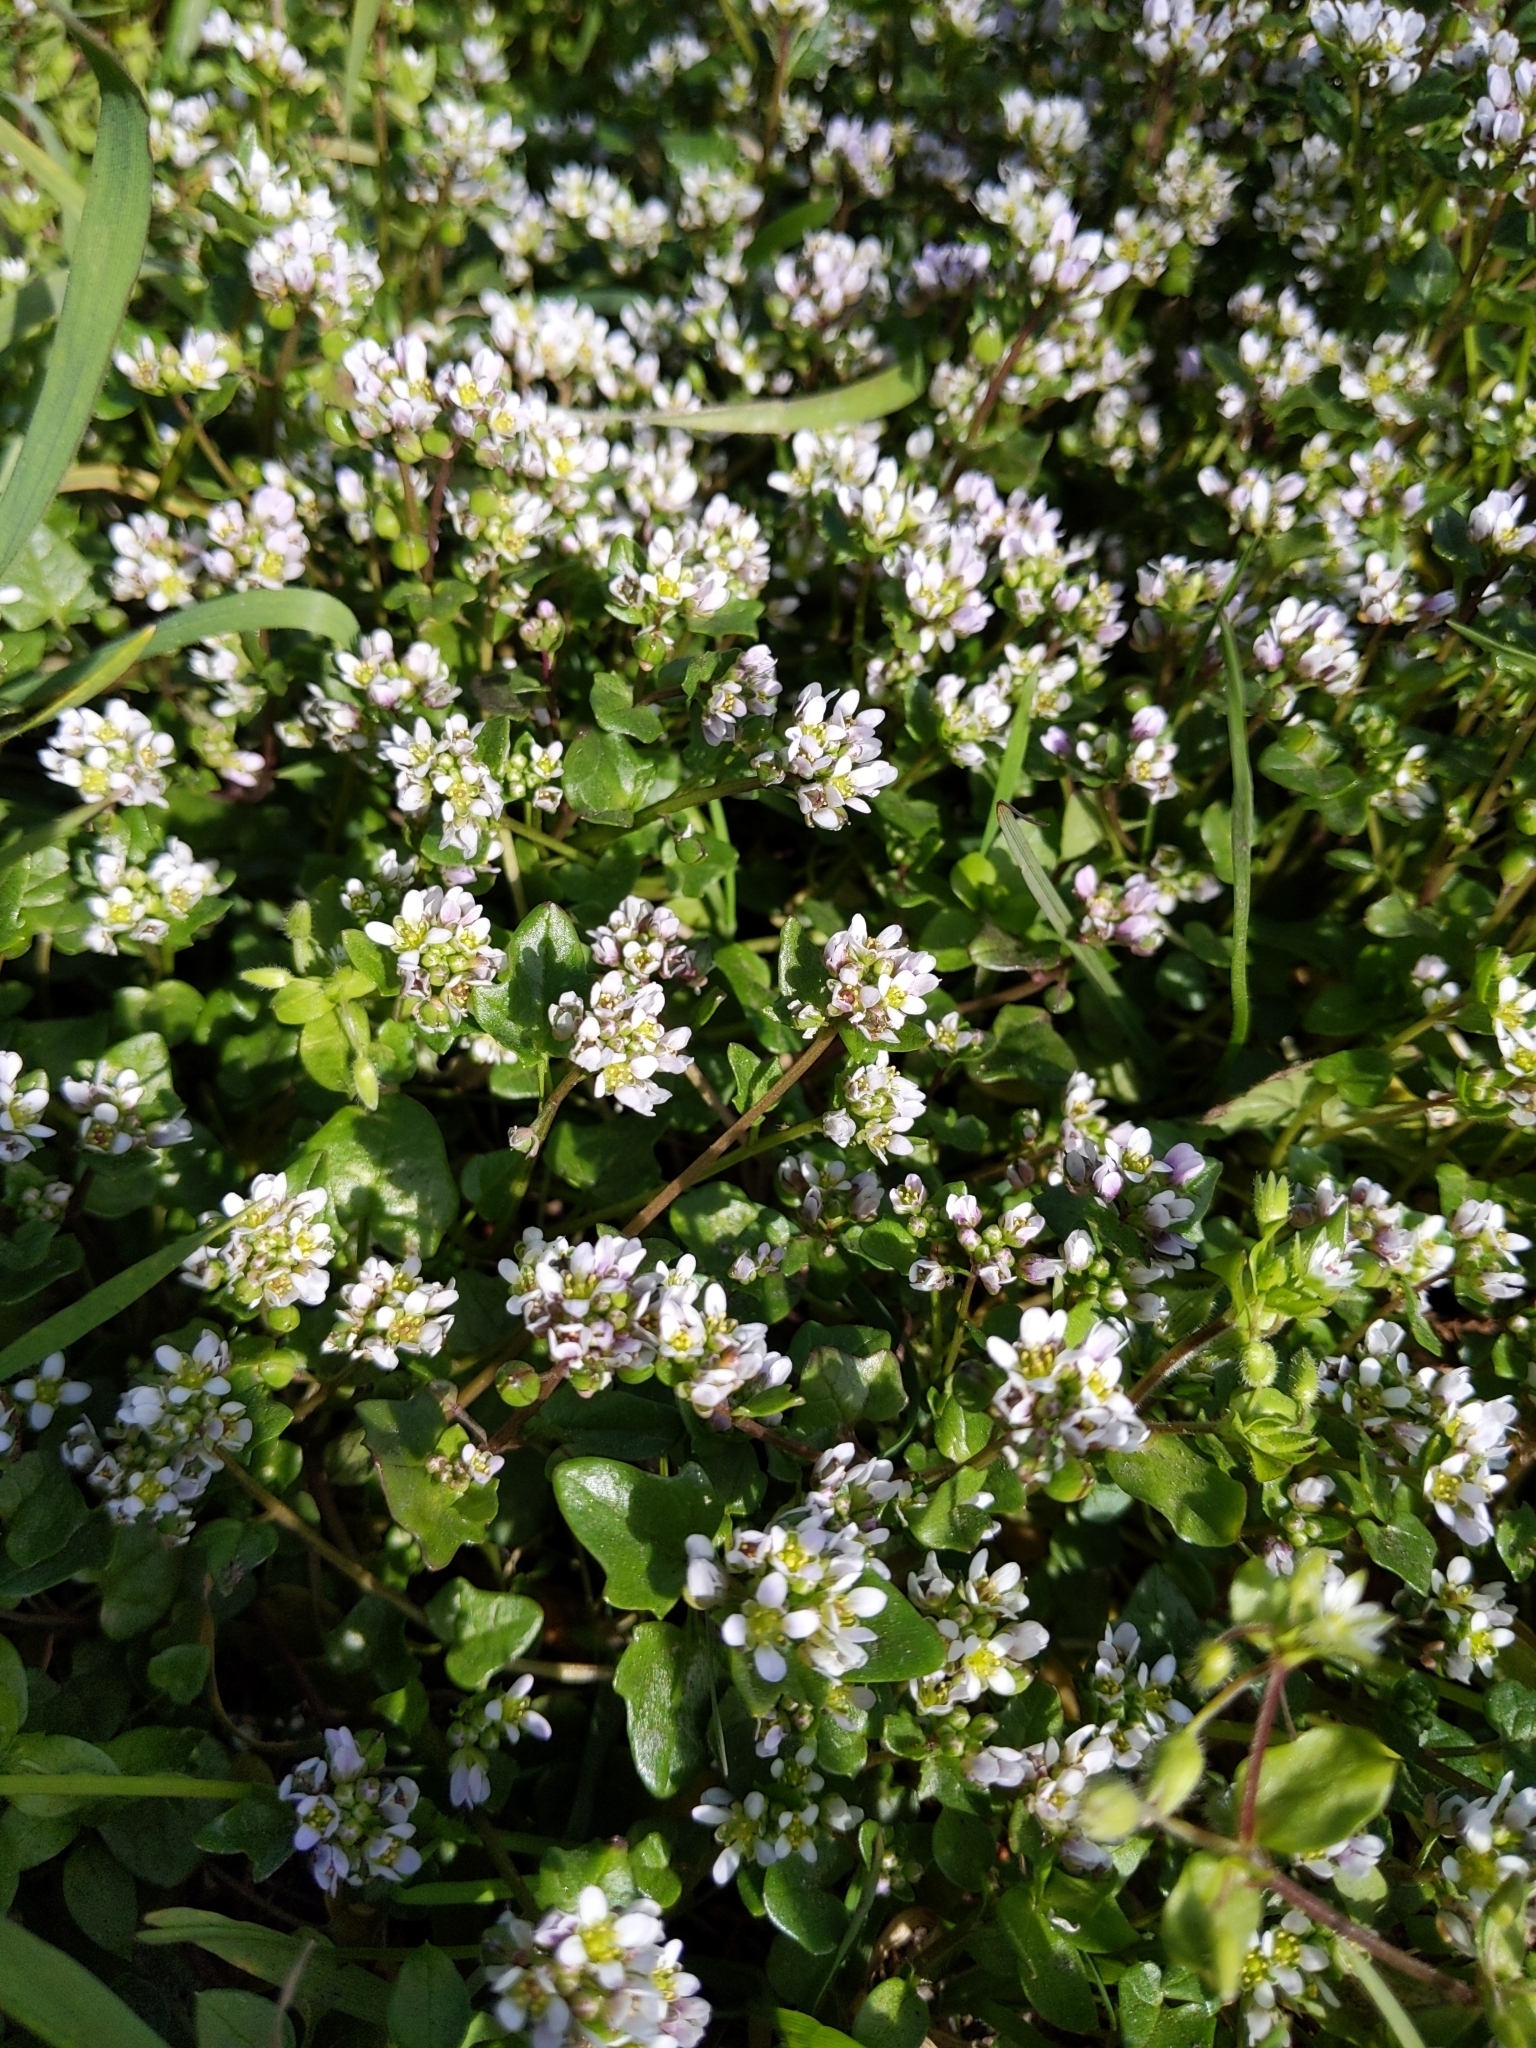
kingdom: Plantae
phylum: Tracheophyta
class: Magnoliopsida
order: Brassicales
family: Brassicaceae
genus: Cochlearia
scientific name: Cochlearia danica
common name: Early scurvygrass
